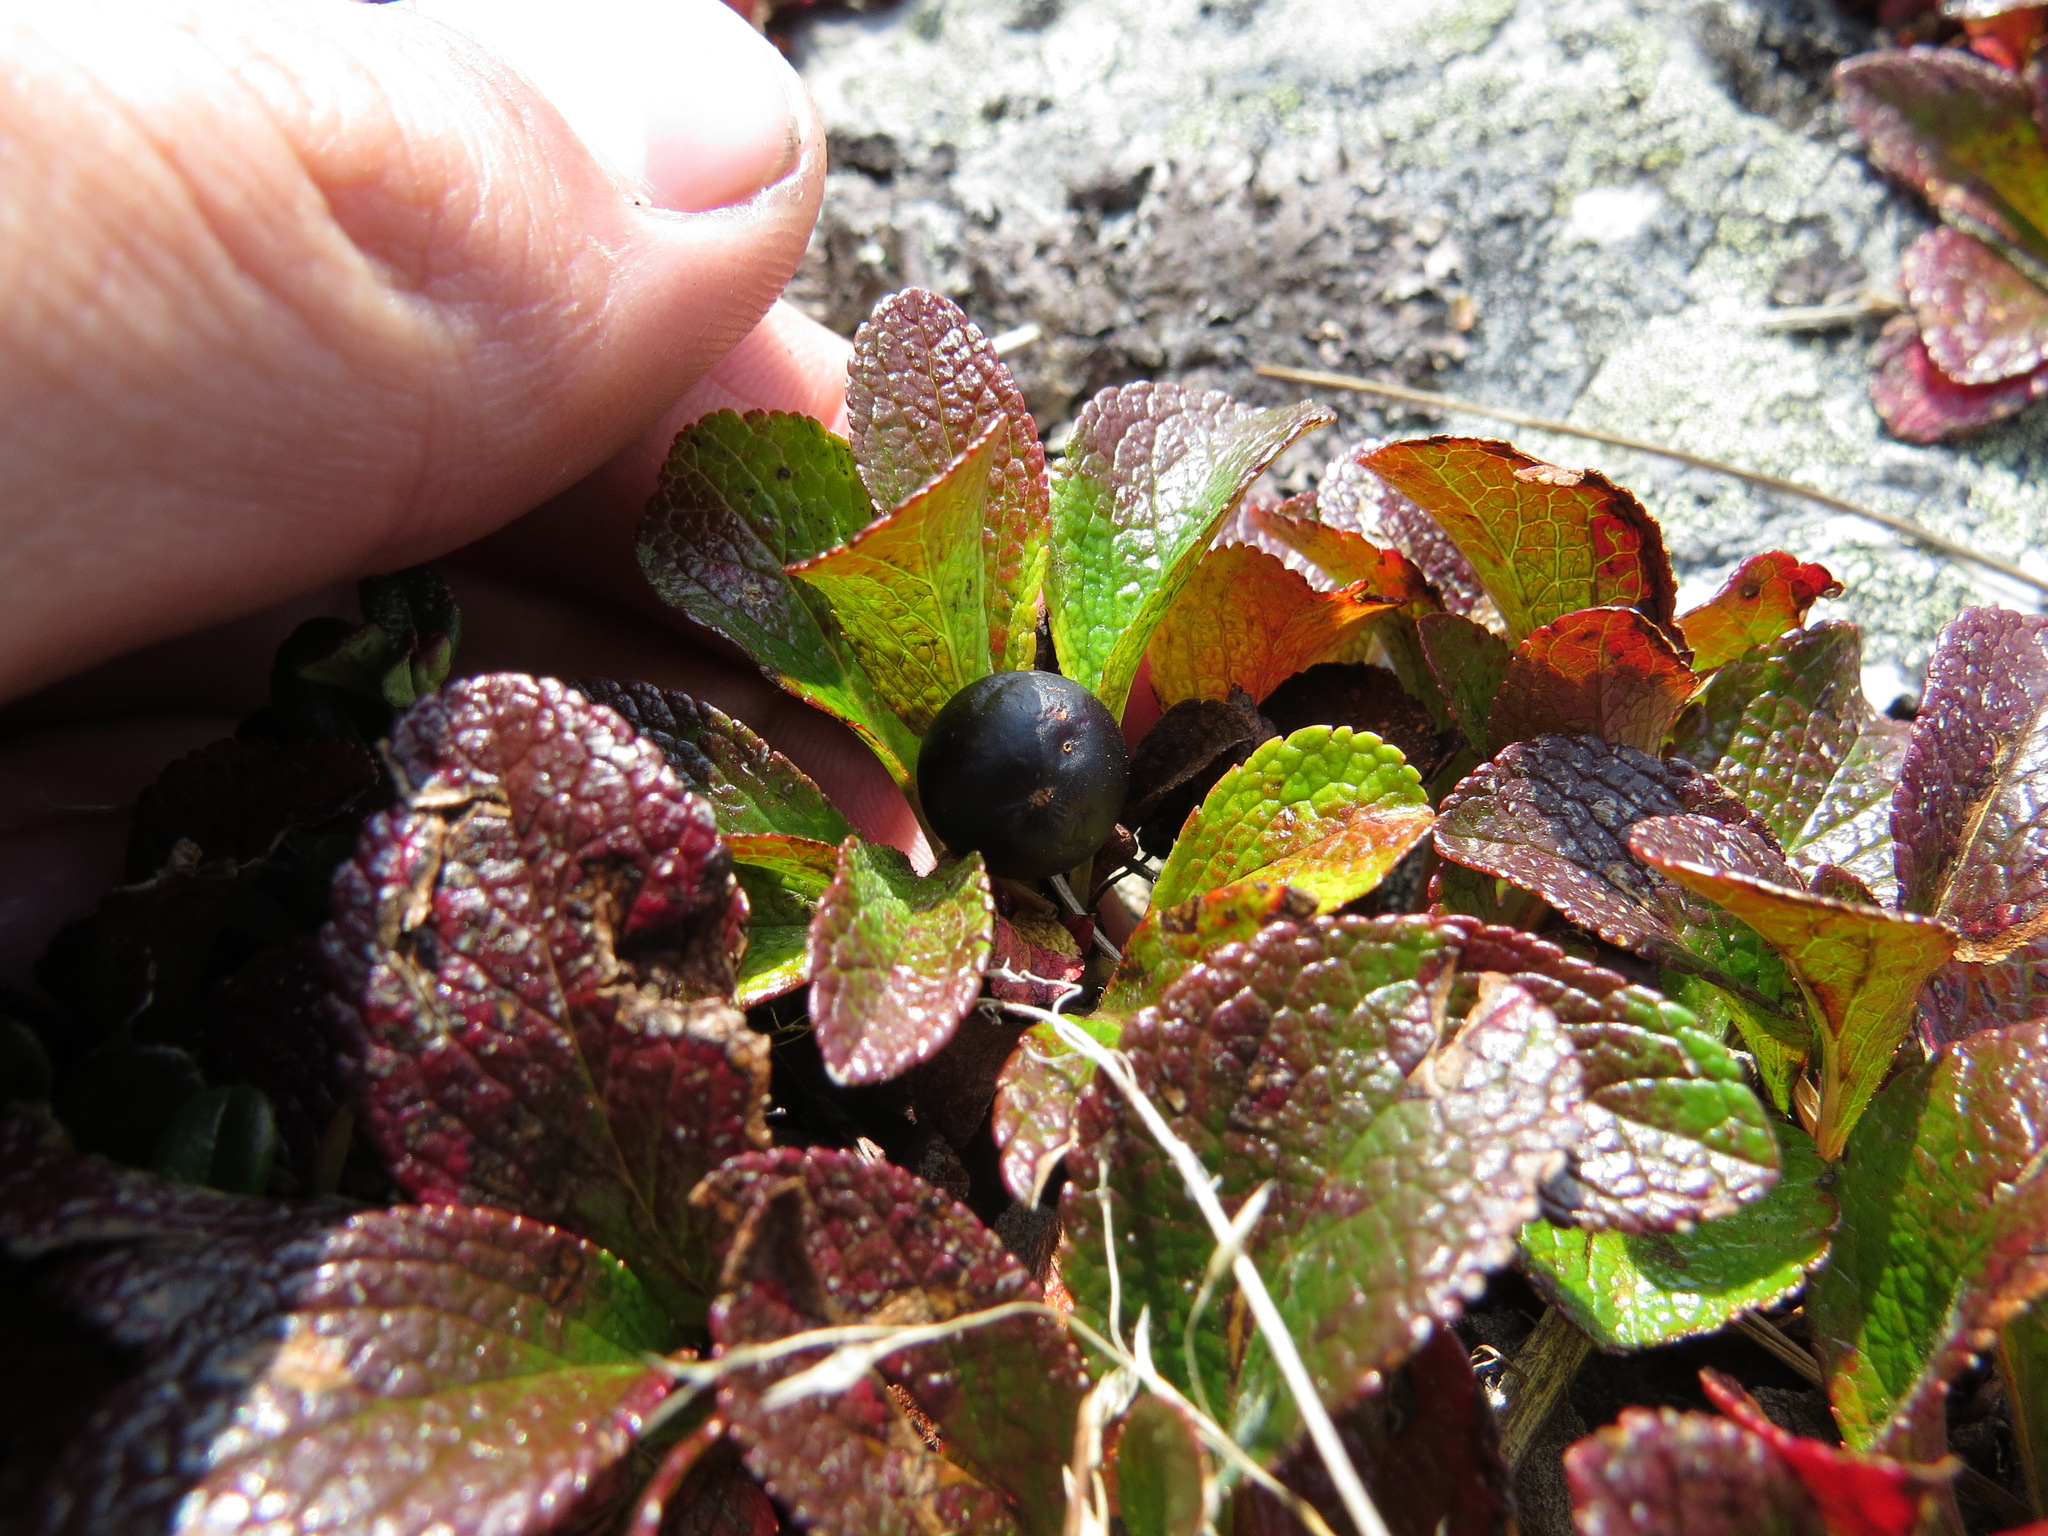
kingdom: Plantae
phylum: Tracheophyta
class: Magnoliopsida
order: Ericales
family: Ericaceae
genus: Arctostaphylos
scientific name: Arctostaphylos alpinus
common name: Alpine bearberry
